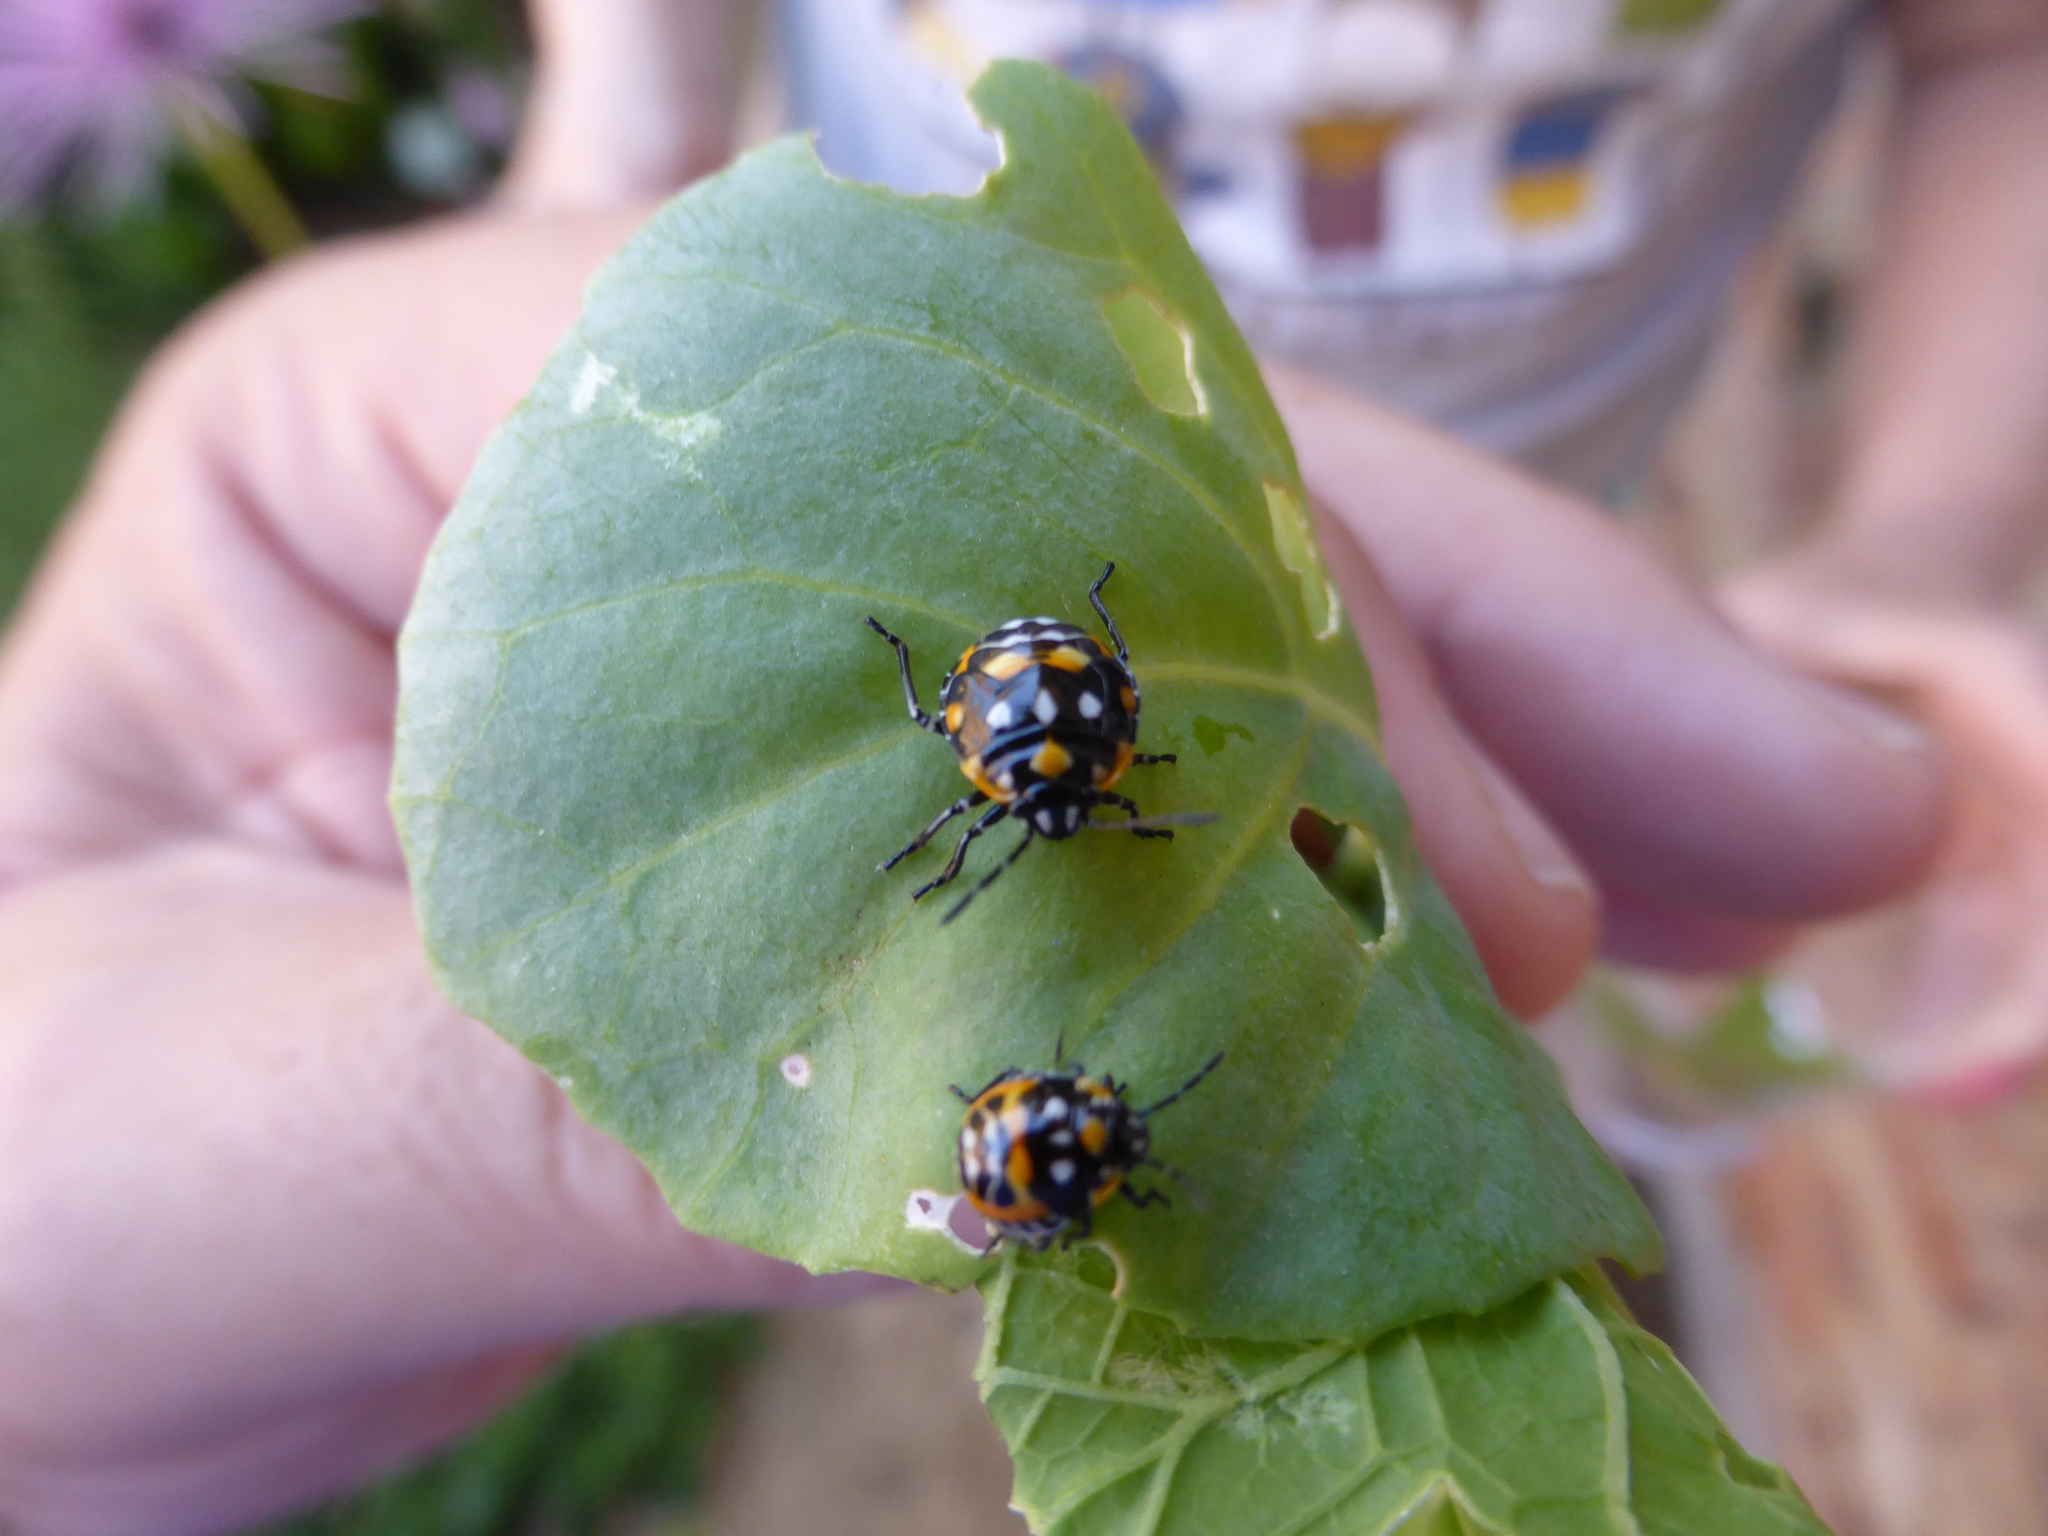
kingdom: Animalia
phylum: Arthropoda
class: Insecta
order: Hemiptera
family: Pentatomidae
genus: Murgantia
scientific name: Murgantia histrionica
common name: Harlequin bug
